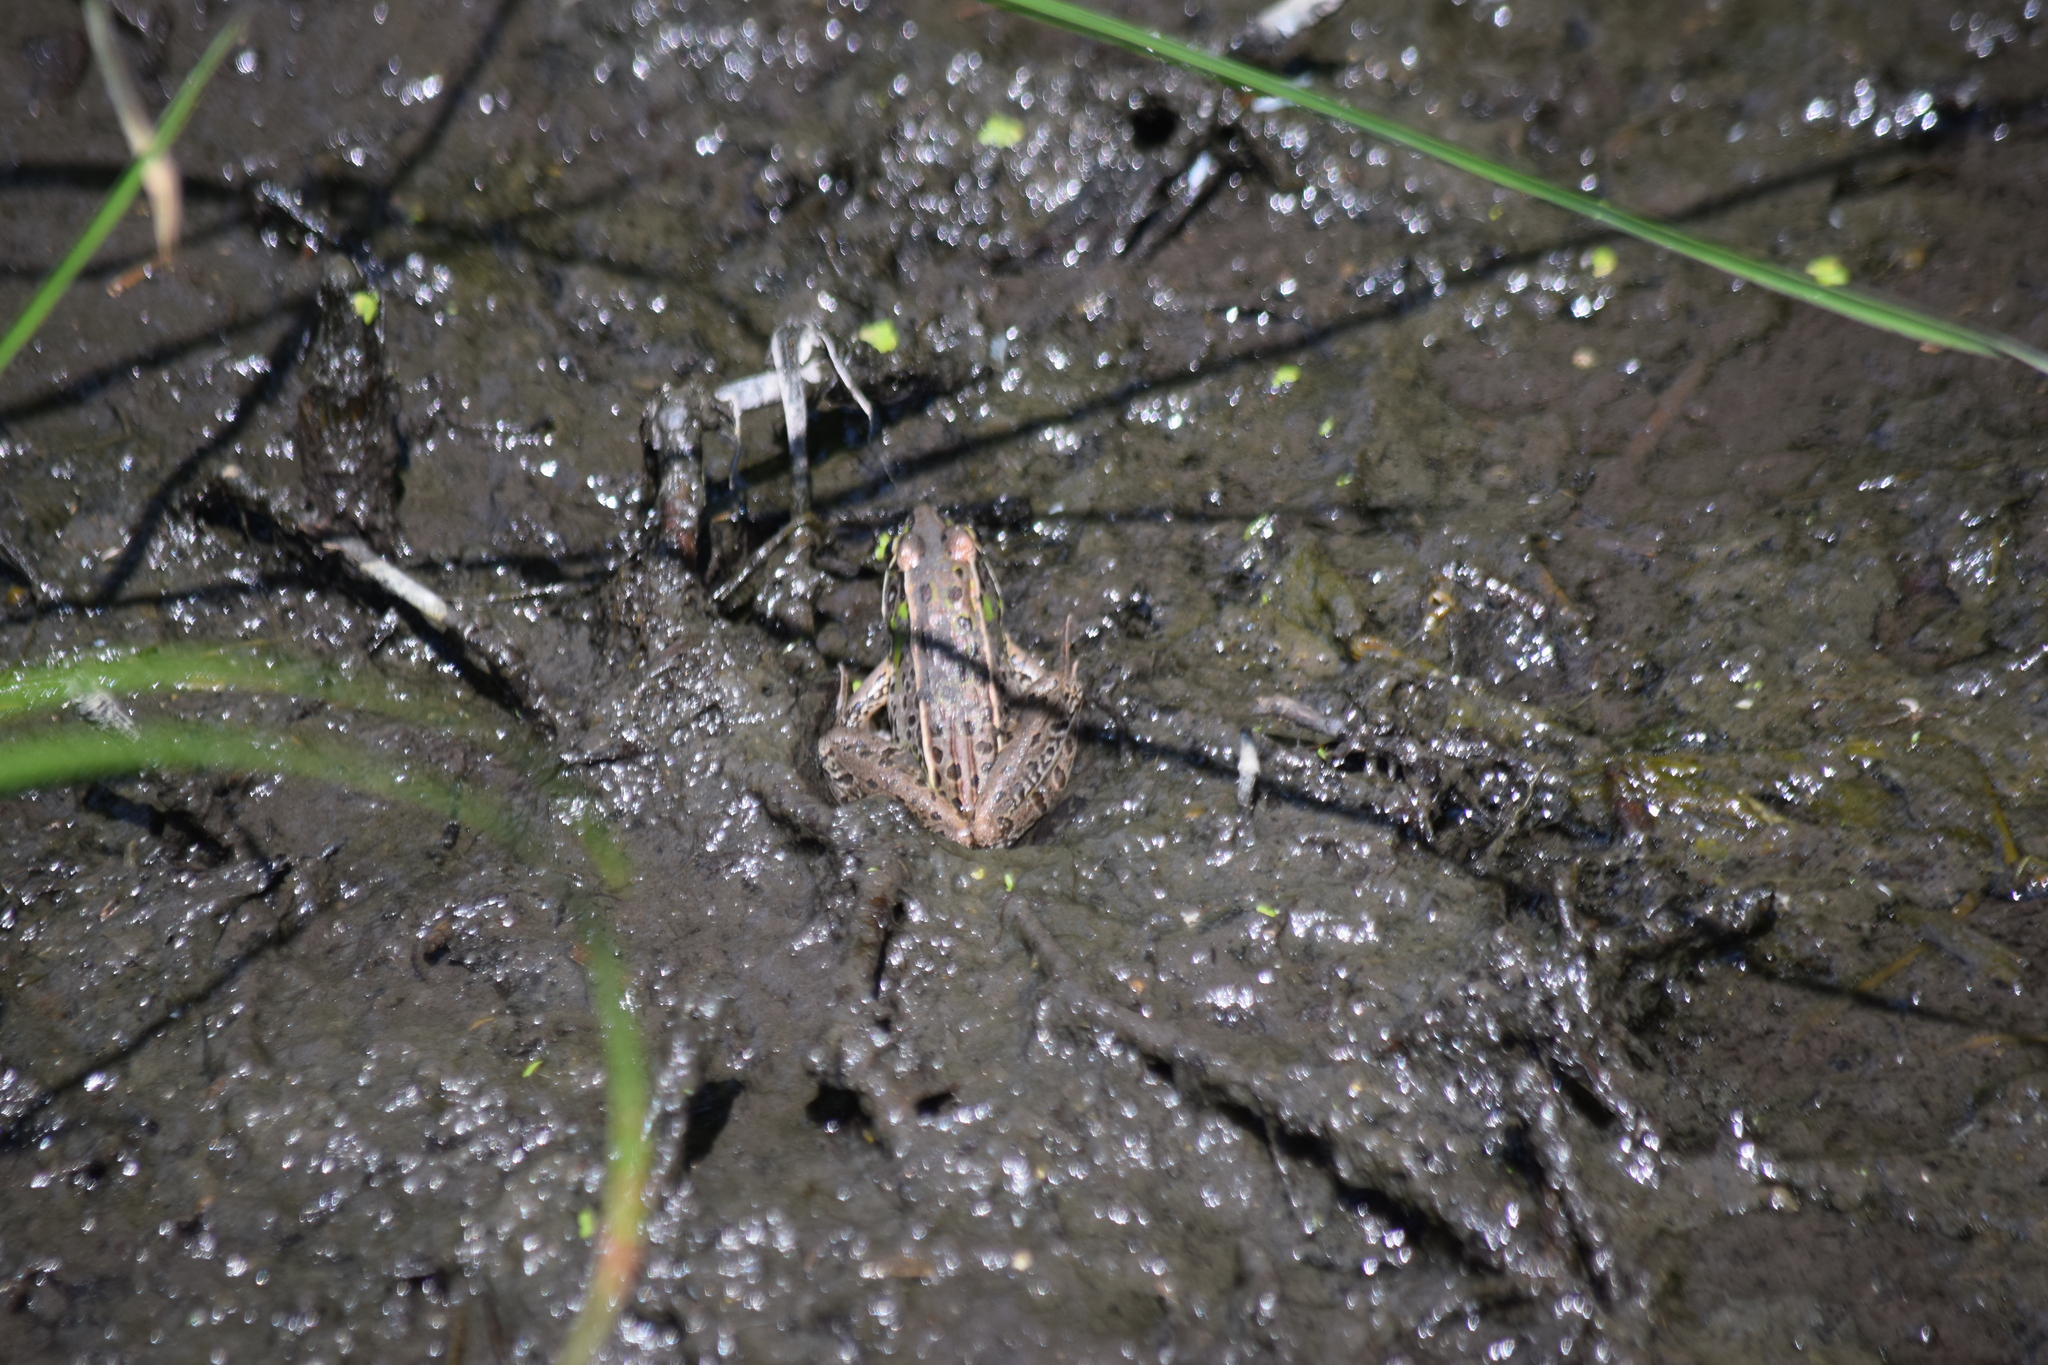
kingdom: Animalia
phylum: Chordata
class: Amphibia
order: Anura
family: Ranidae
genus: Lithobates
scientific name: Lithobates sphenocephalus
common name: Southern leopard frog
